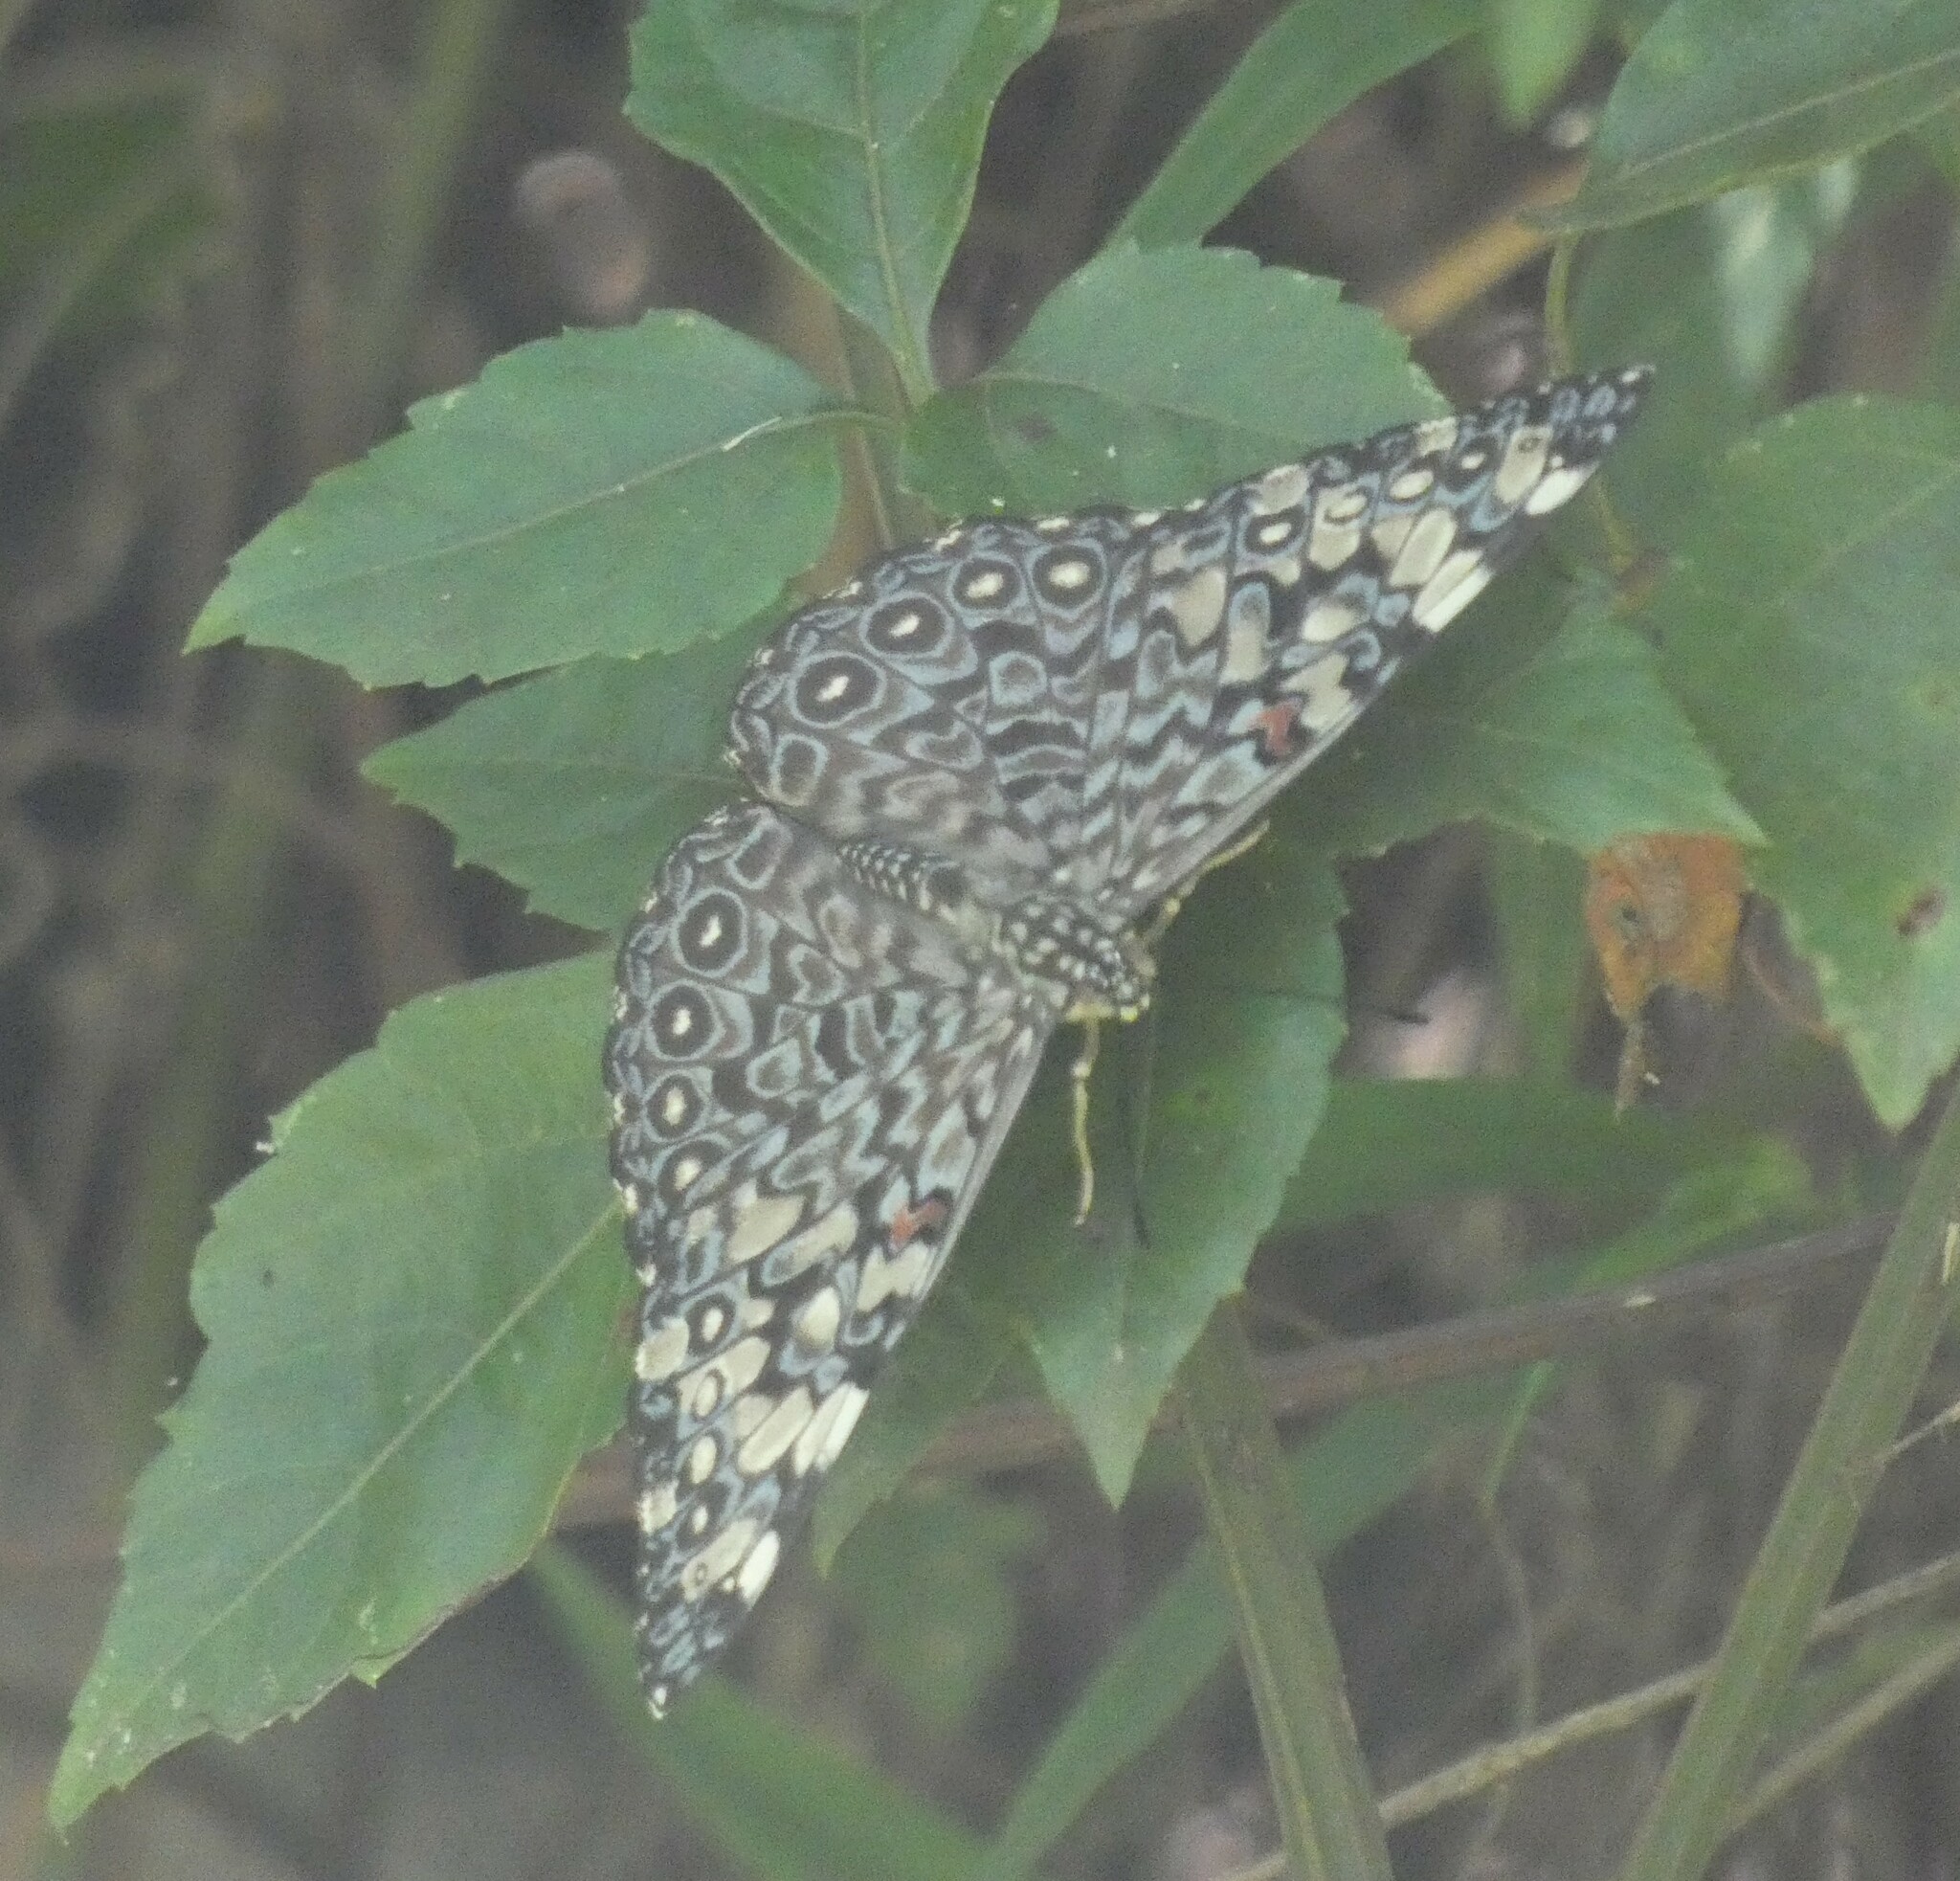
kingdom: Animalia
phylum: Arthropoda
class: Insecta
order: Lepidoptera
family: Nymphalidae
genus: Hamadryas
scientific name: Hamadryas feronia
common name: Variable cracker
